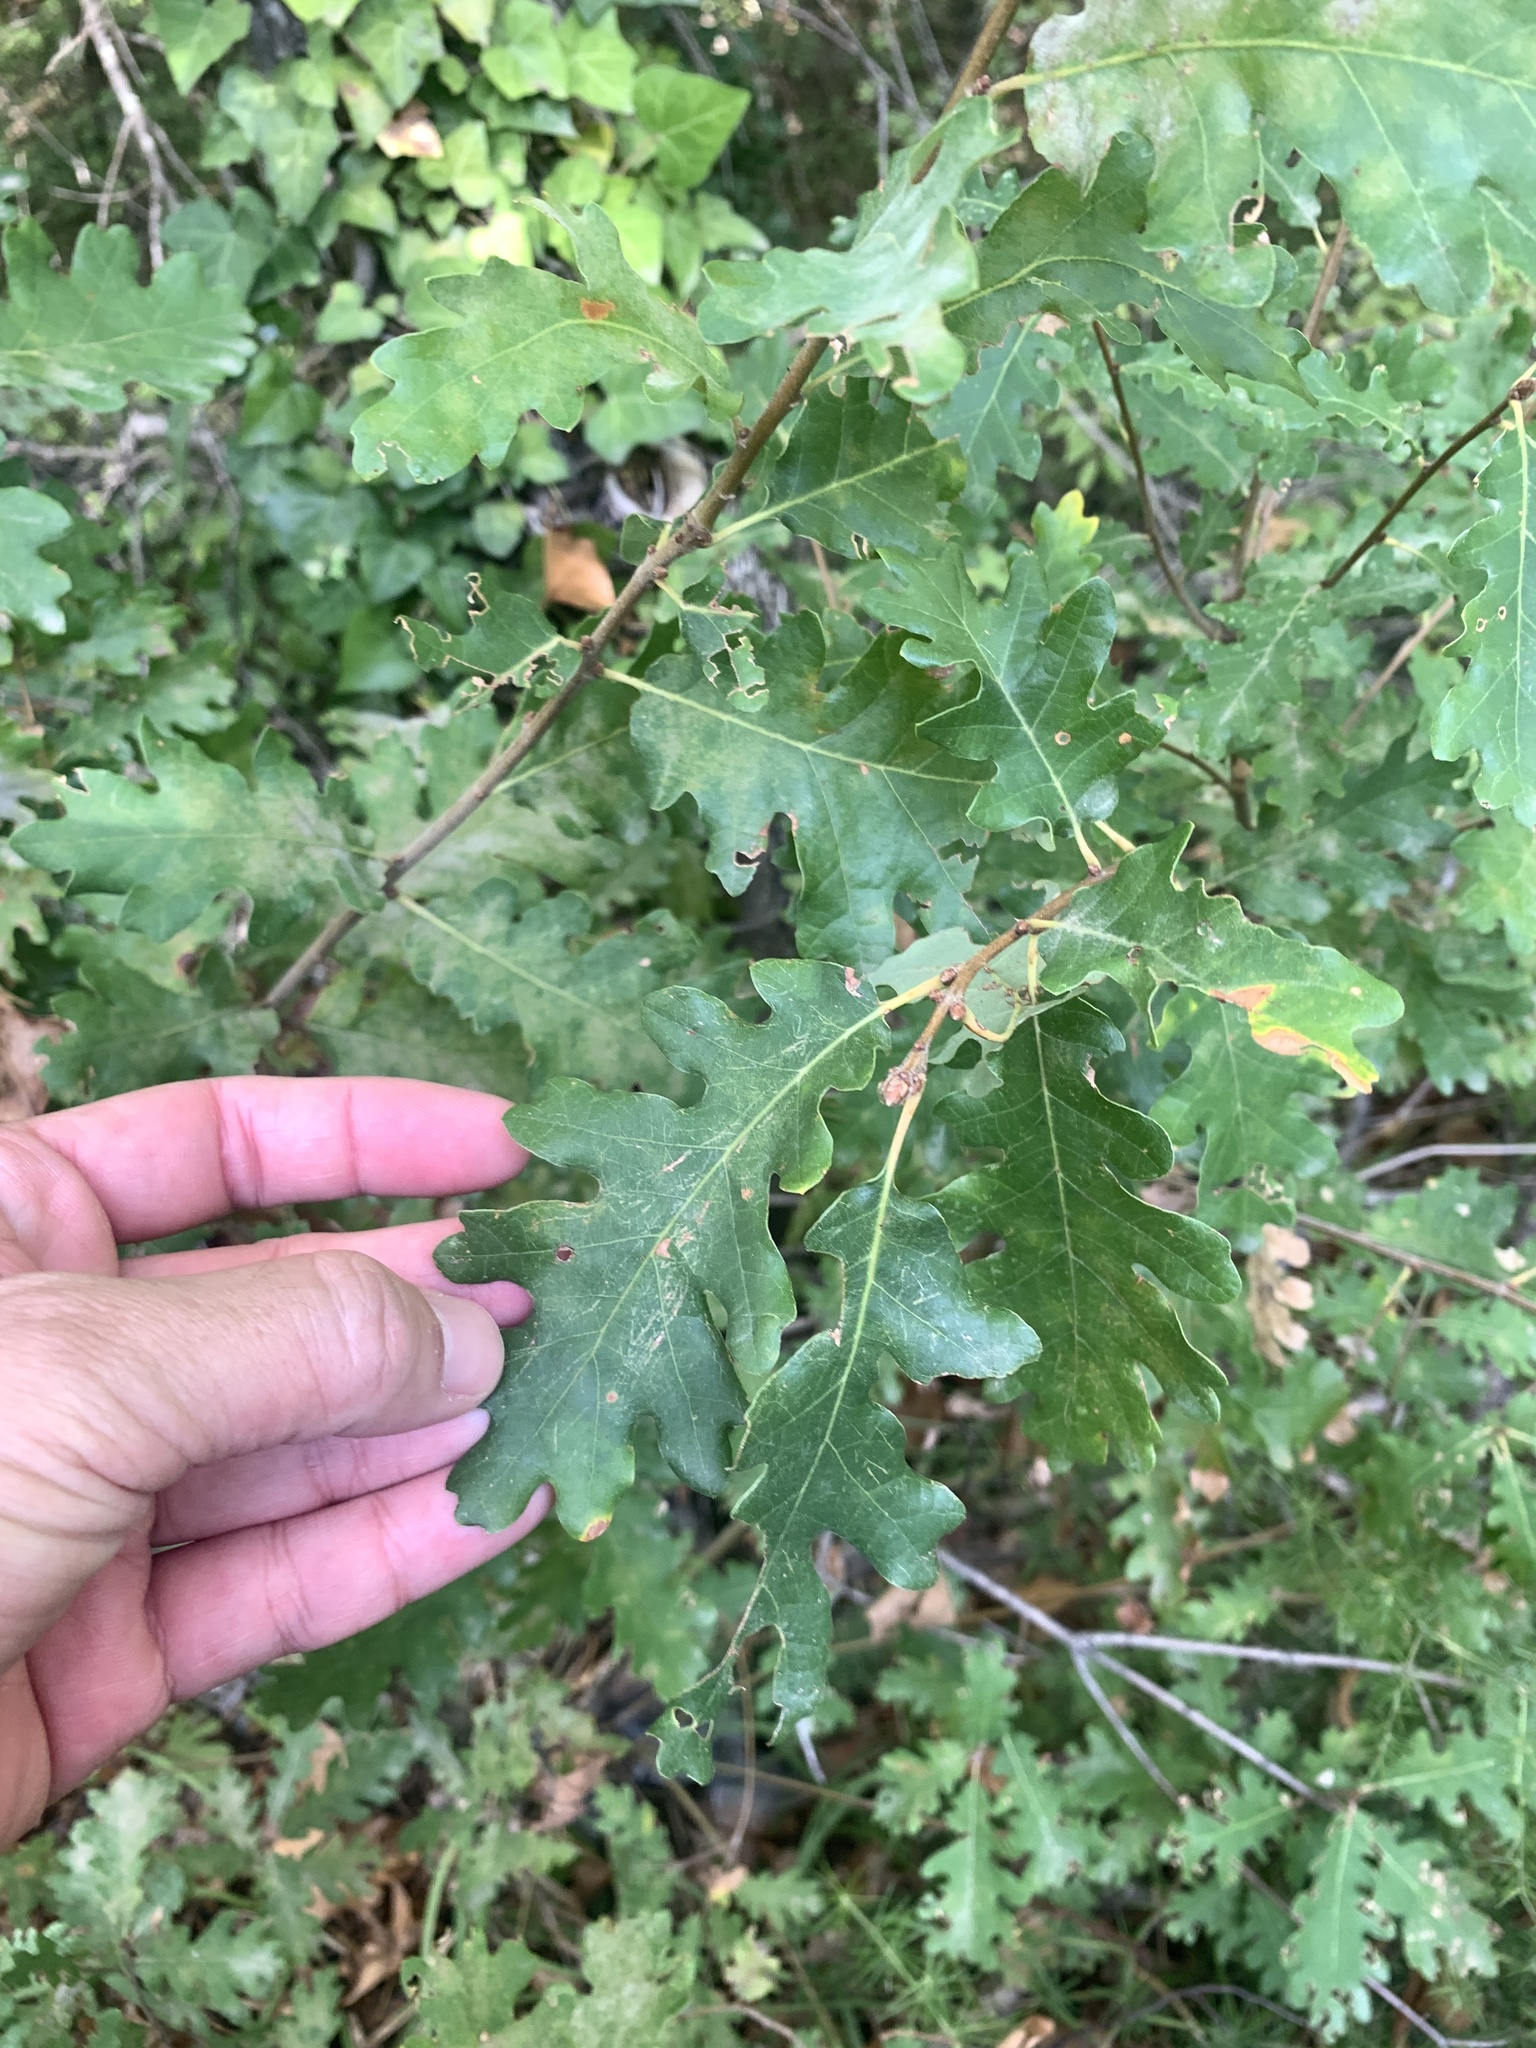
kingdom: Plantae
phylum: Tracheophyta
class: Magnoliopsida
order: Fagales
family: Fagaceae
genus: Quercus
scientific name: Quercus pubescens
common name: Downy oak
